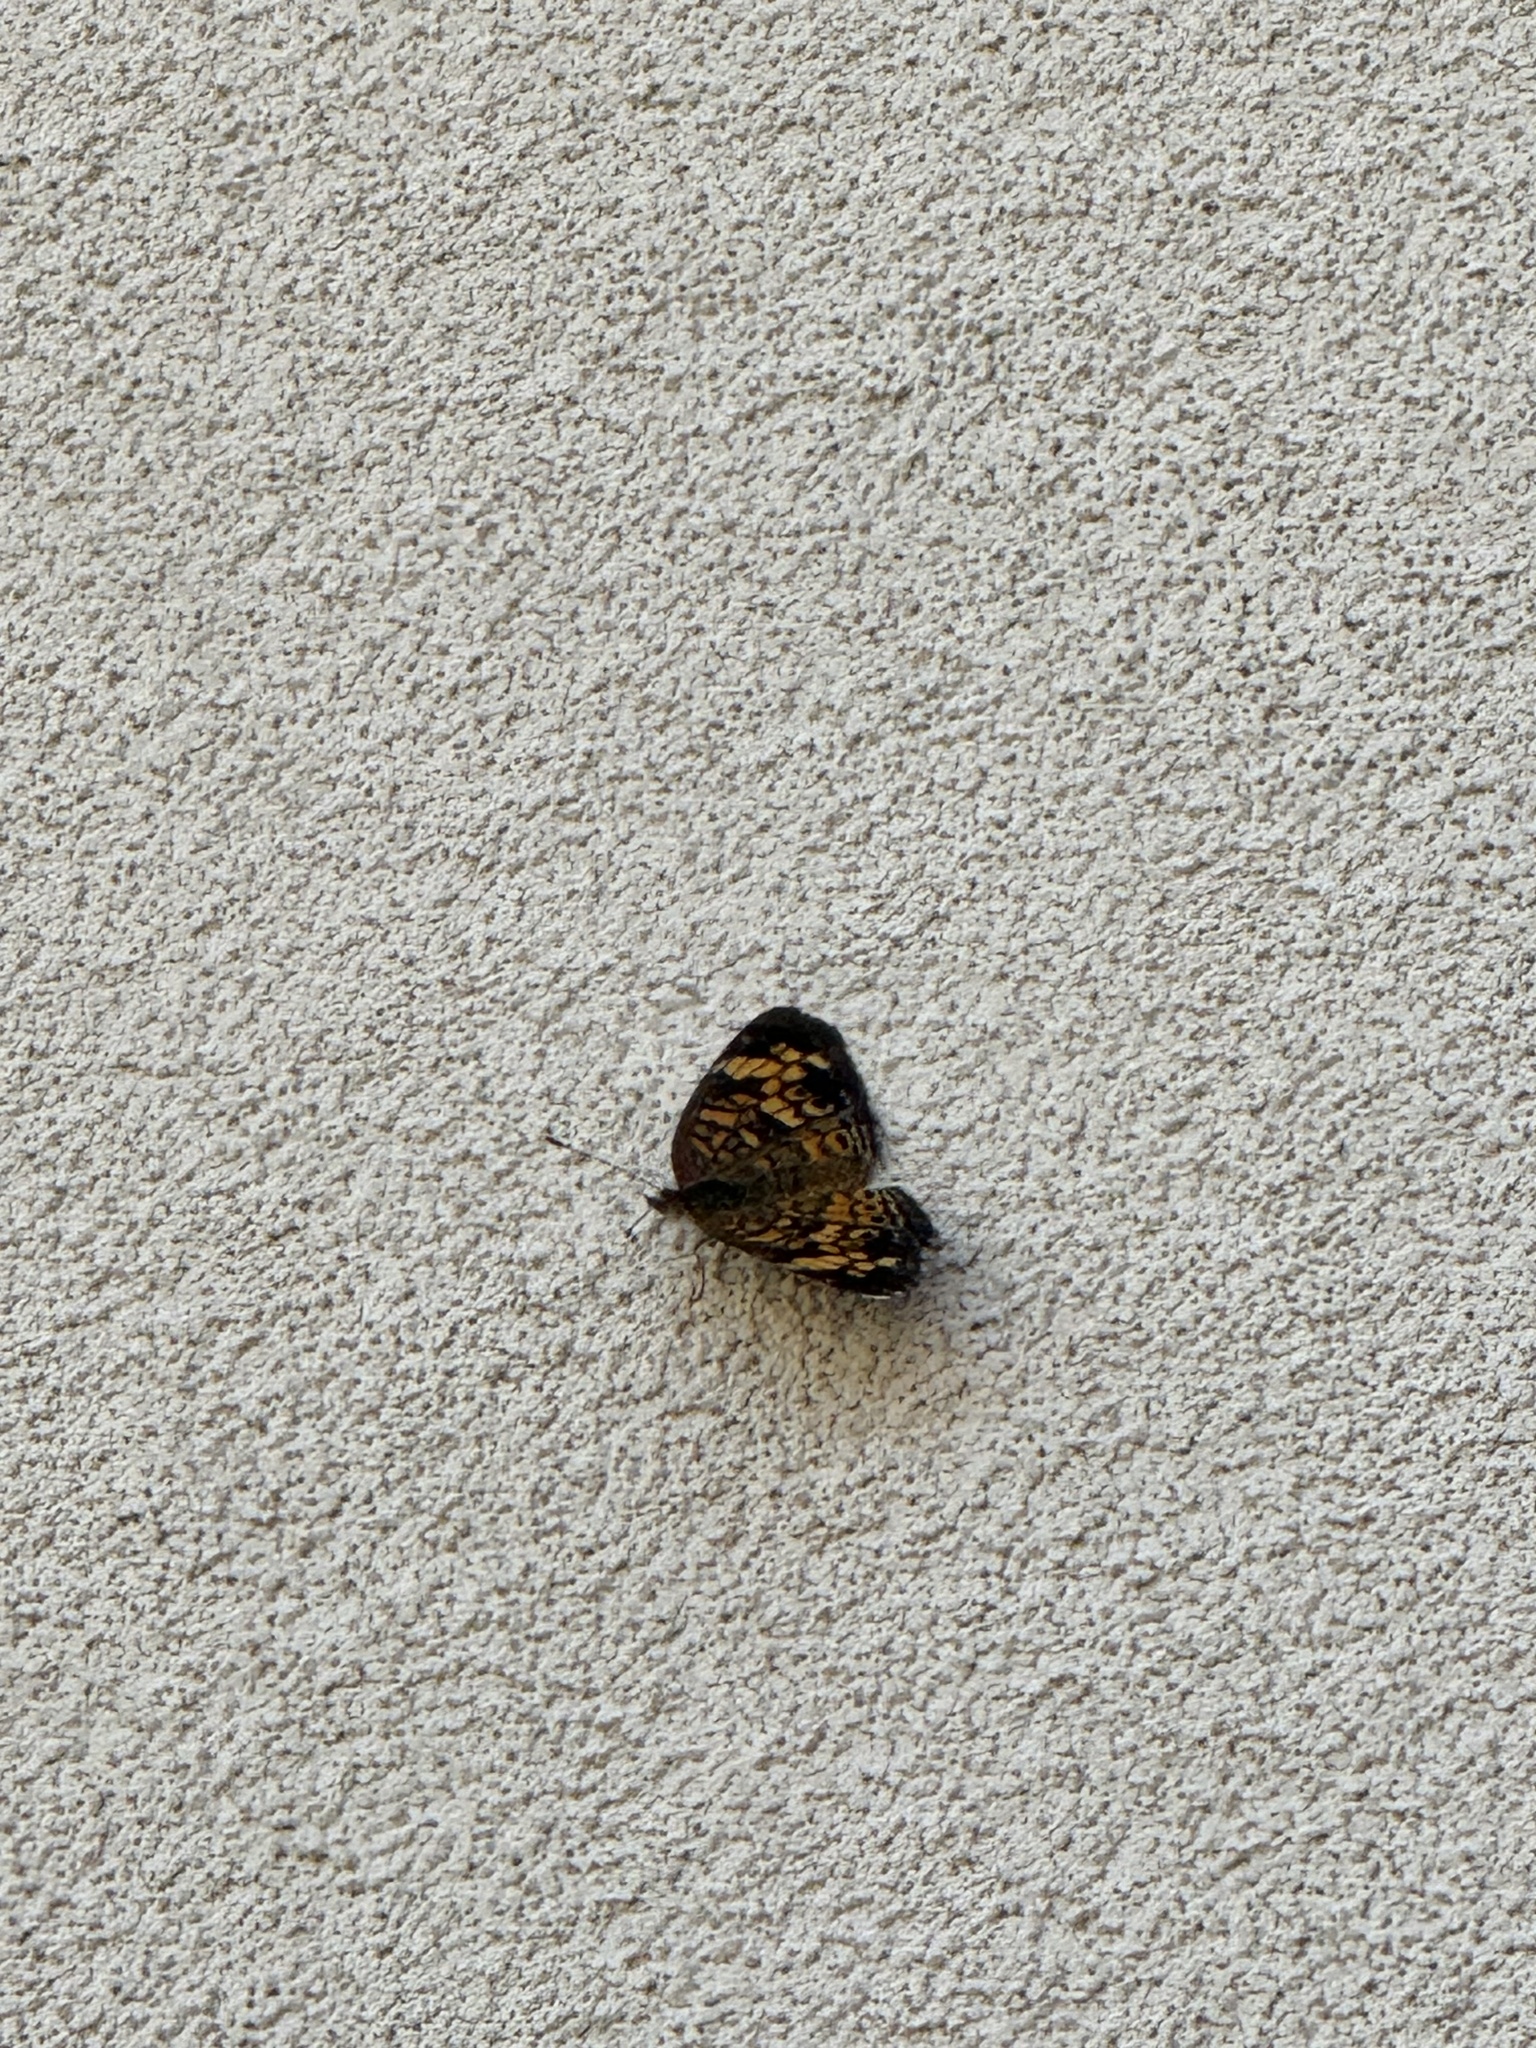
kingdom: Animalia
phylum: Arthropoda
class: Insecta
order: Lepidoptera
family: Nymphalidae
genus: Phyciodes
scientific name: Phyciodes tharos
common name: Pearl crescent
